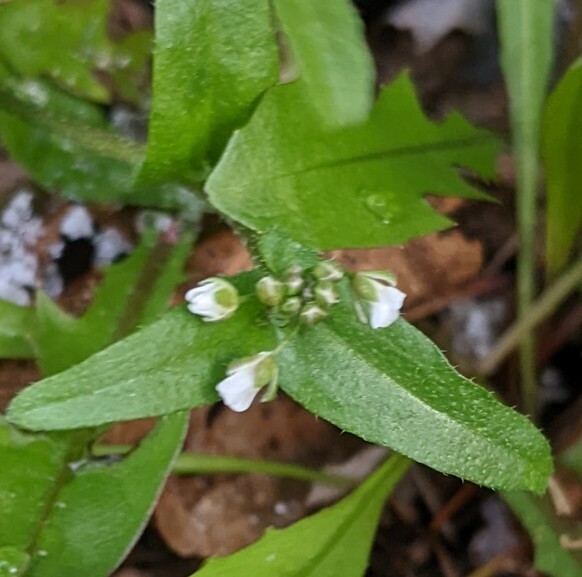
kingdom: Plantae
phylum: Tracheophyta
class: Magnoliopsida
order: Brassicales
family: Brassicaceae
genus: Capsella
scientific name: Capsella bursa-pastoris
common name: Shepherd's purse
